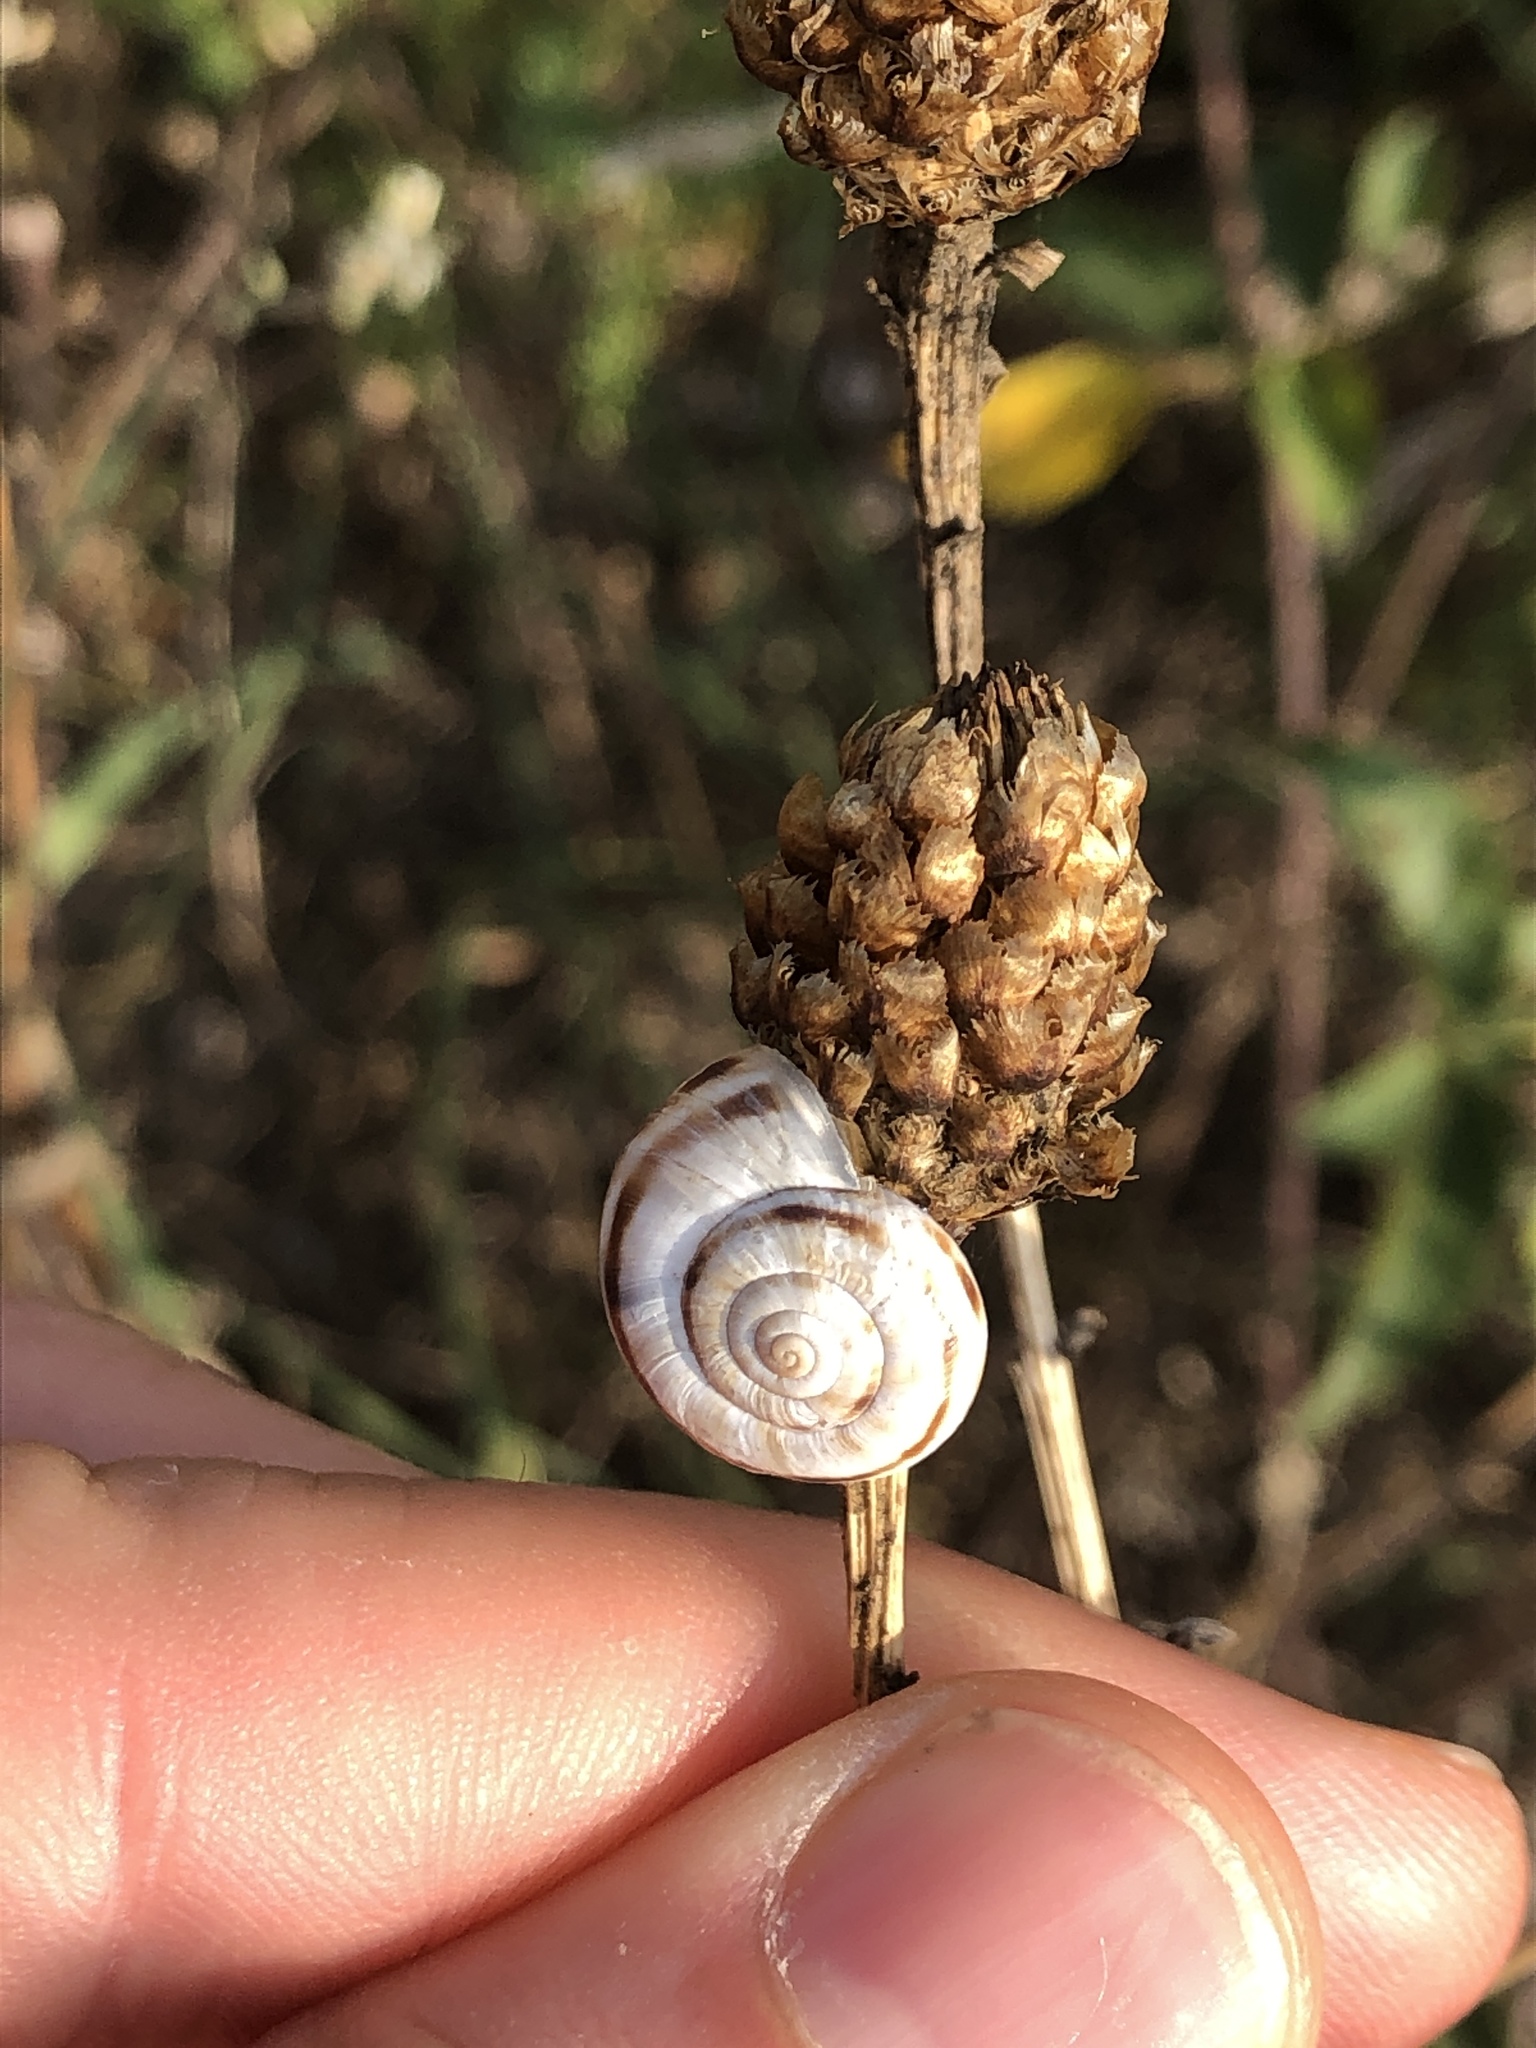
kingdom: Animalia
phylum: Mollusca
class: Gastropoda
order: Stylommatophora
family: Geomitridae
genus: Xerolenta
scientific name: Xerolenta obvia
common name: White heath snail
